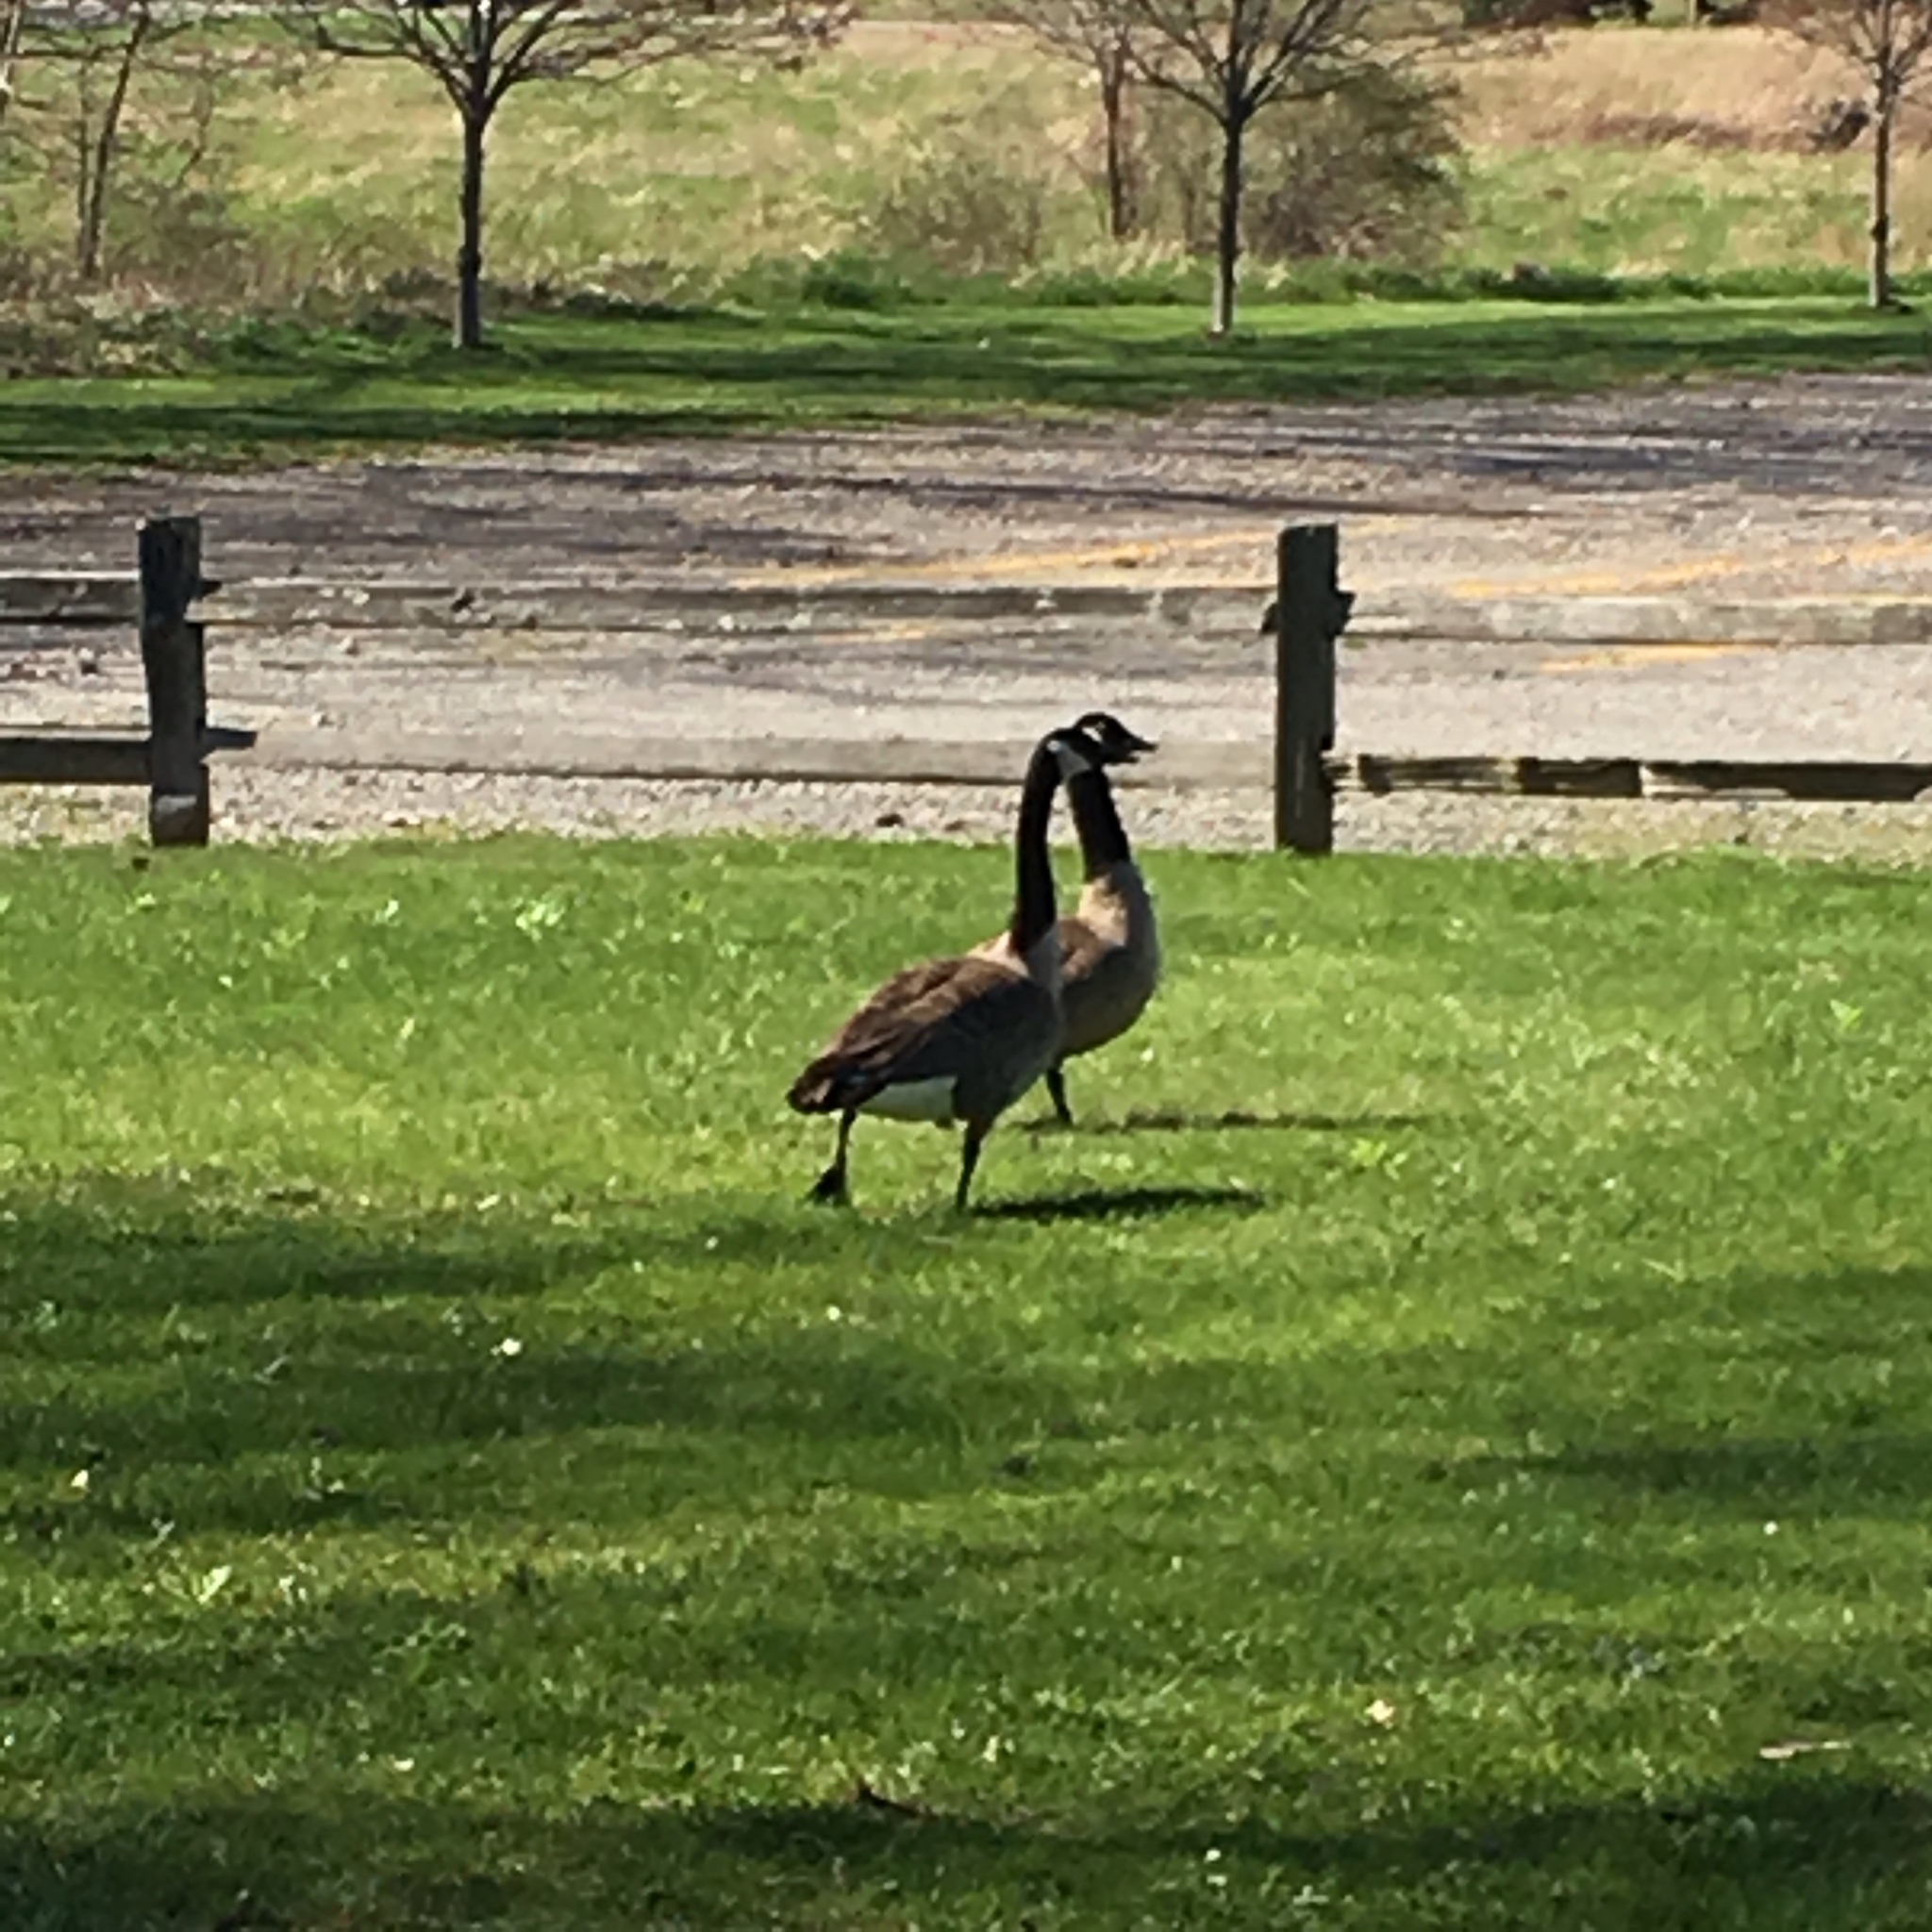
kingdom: Animalia
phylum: Chordata
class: Aves
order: Anseriformes
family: Anatidae
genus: Branta
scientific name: Branta canadensis
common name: Canada goose
